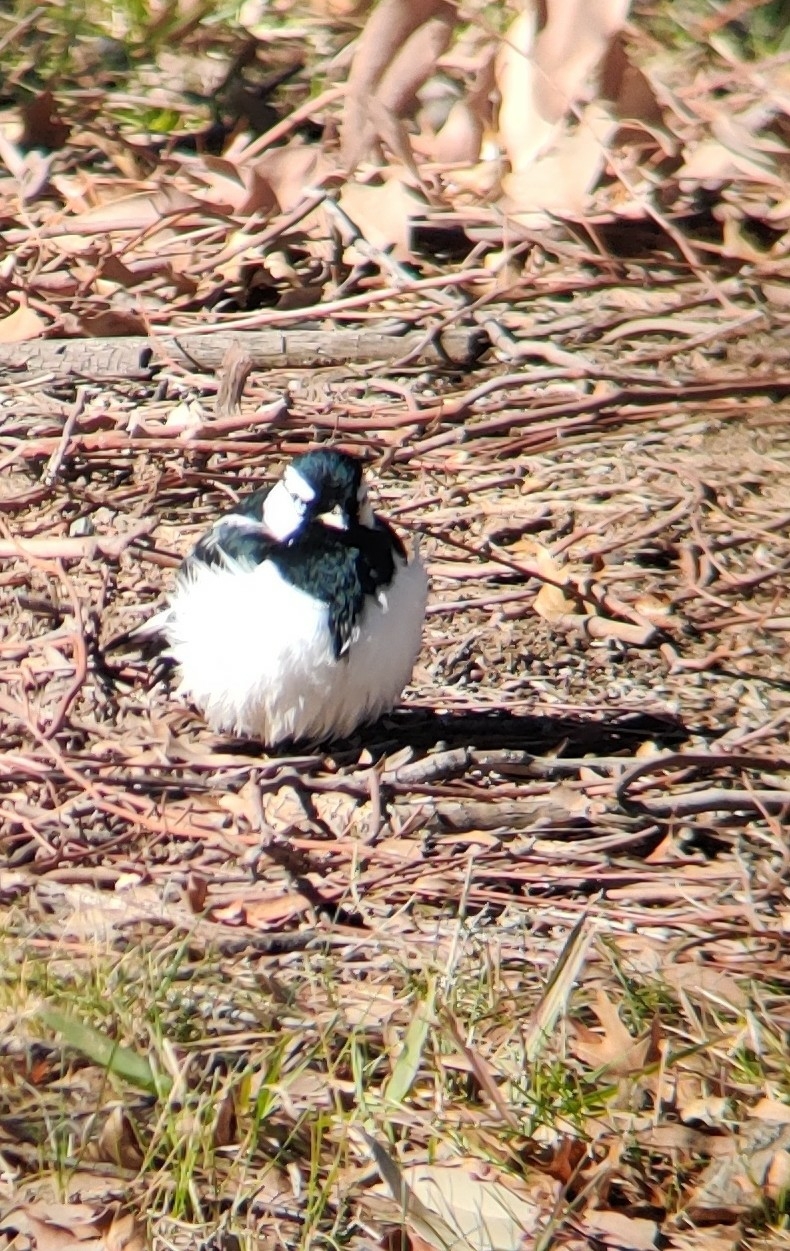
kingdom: Animalia
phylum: Chordata
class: Aves
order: Passeriformes
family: Monarchidae
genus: Grallina
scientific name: Grallina cyanoleuca
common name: Magpie-lark
